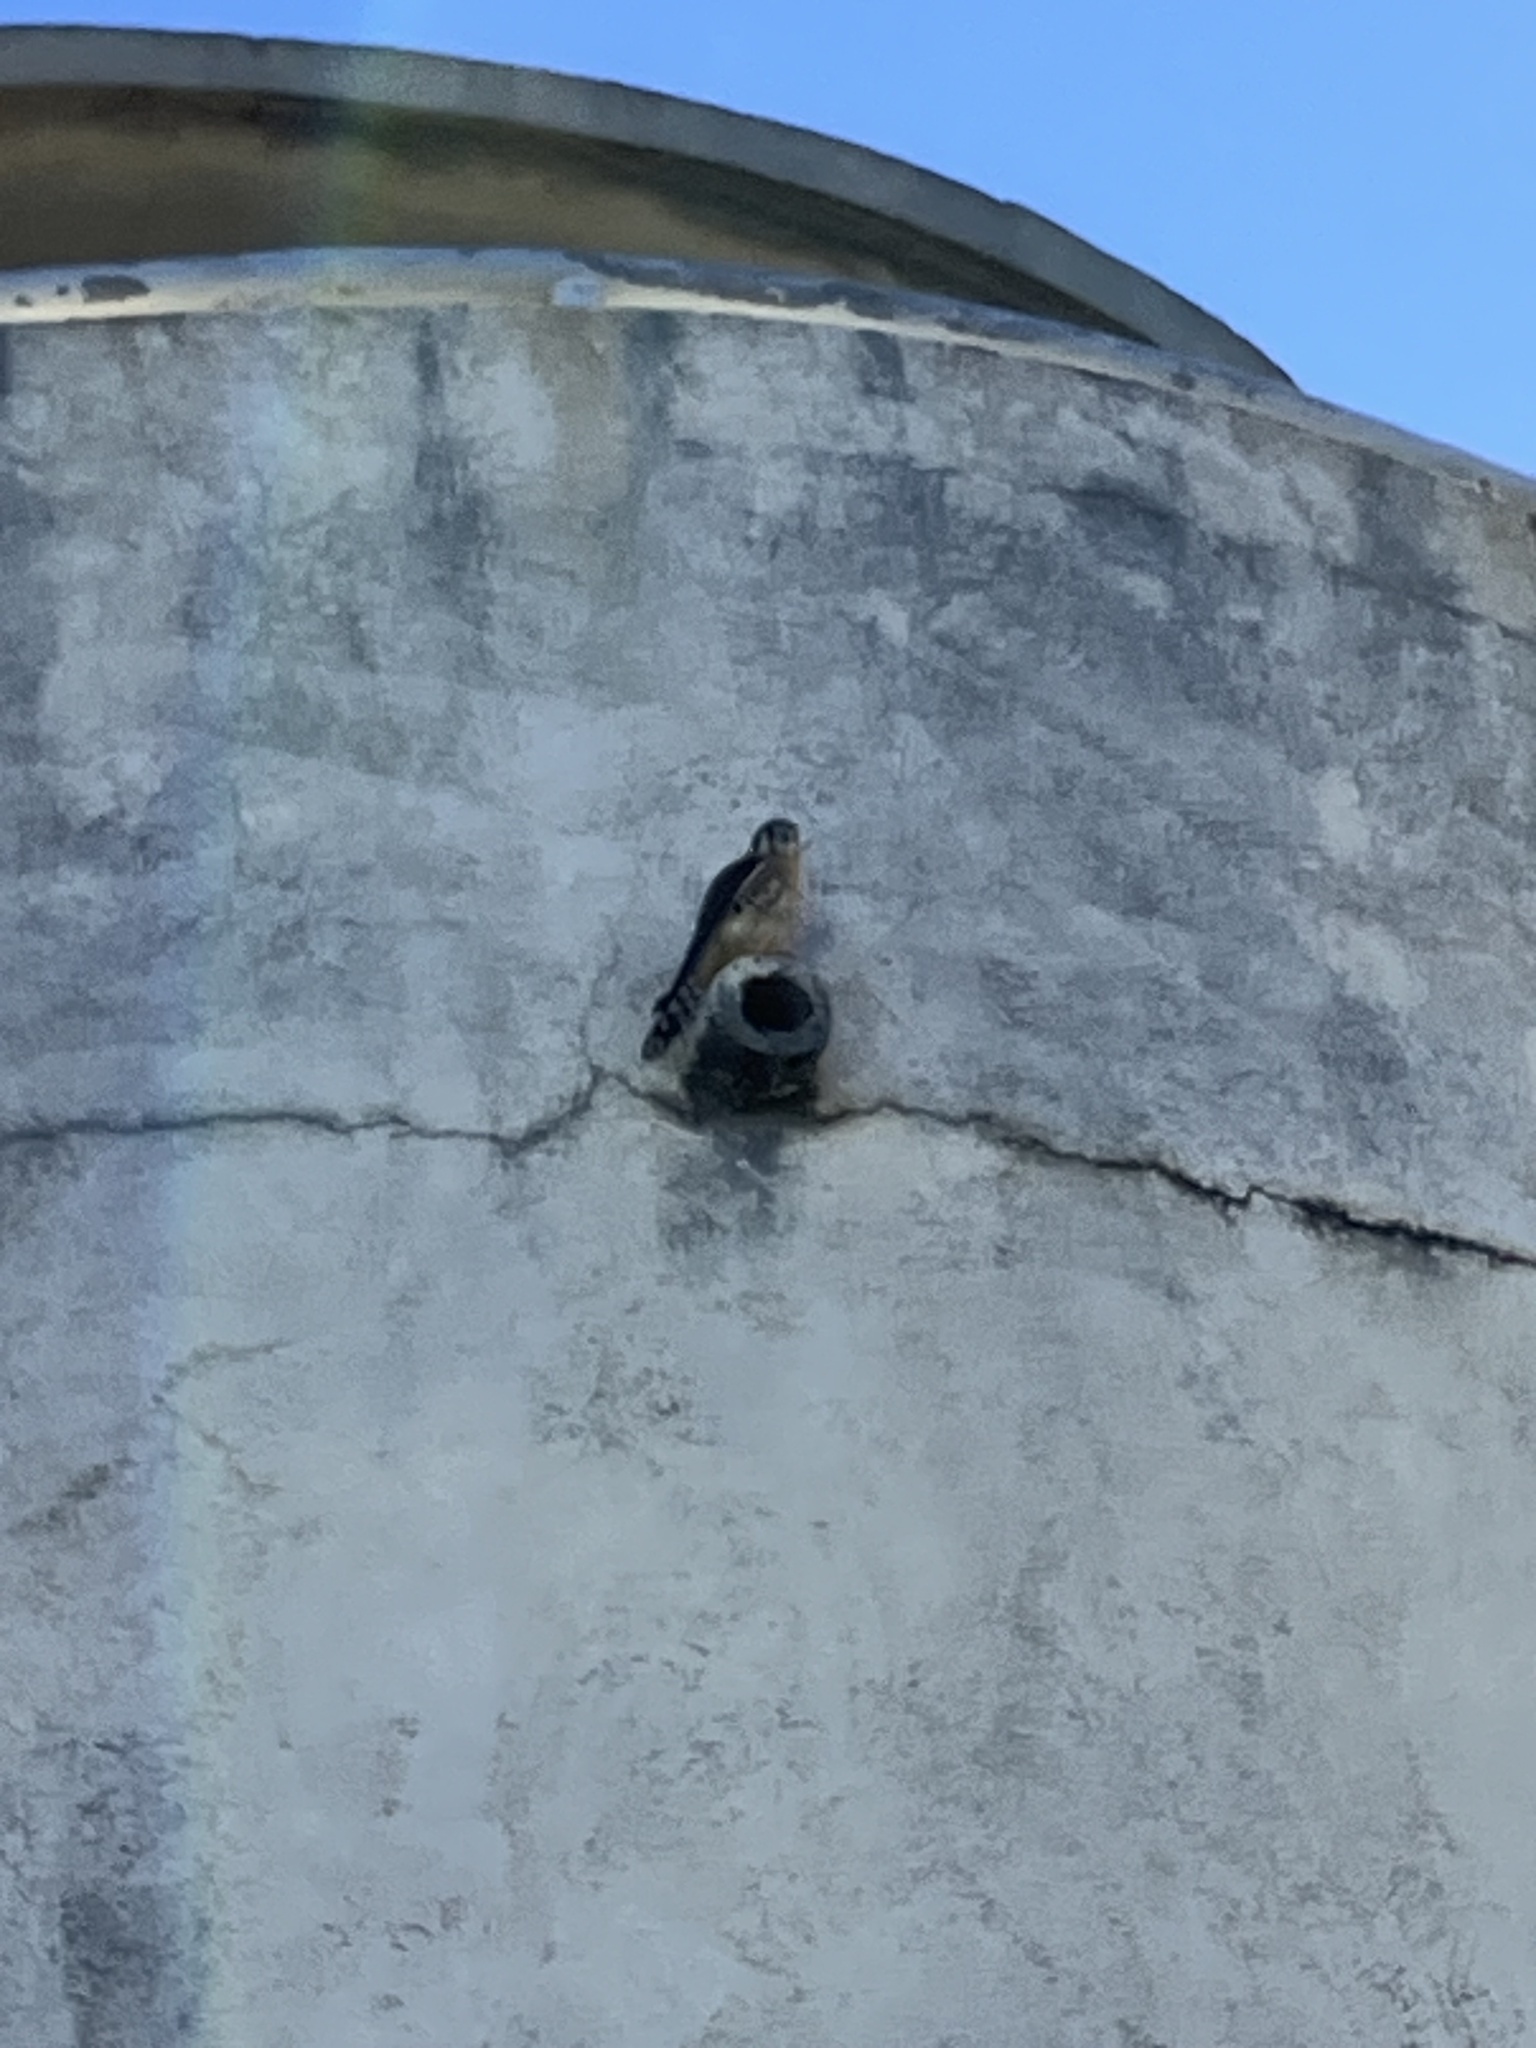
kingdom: Animalia
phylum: Chordata
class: Aves
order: Falconiformes
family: Falconidae
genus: Falco
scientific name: Falco sparverius
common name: American kestrel
